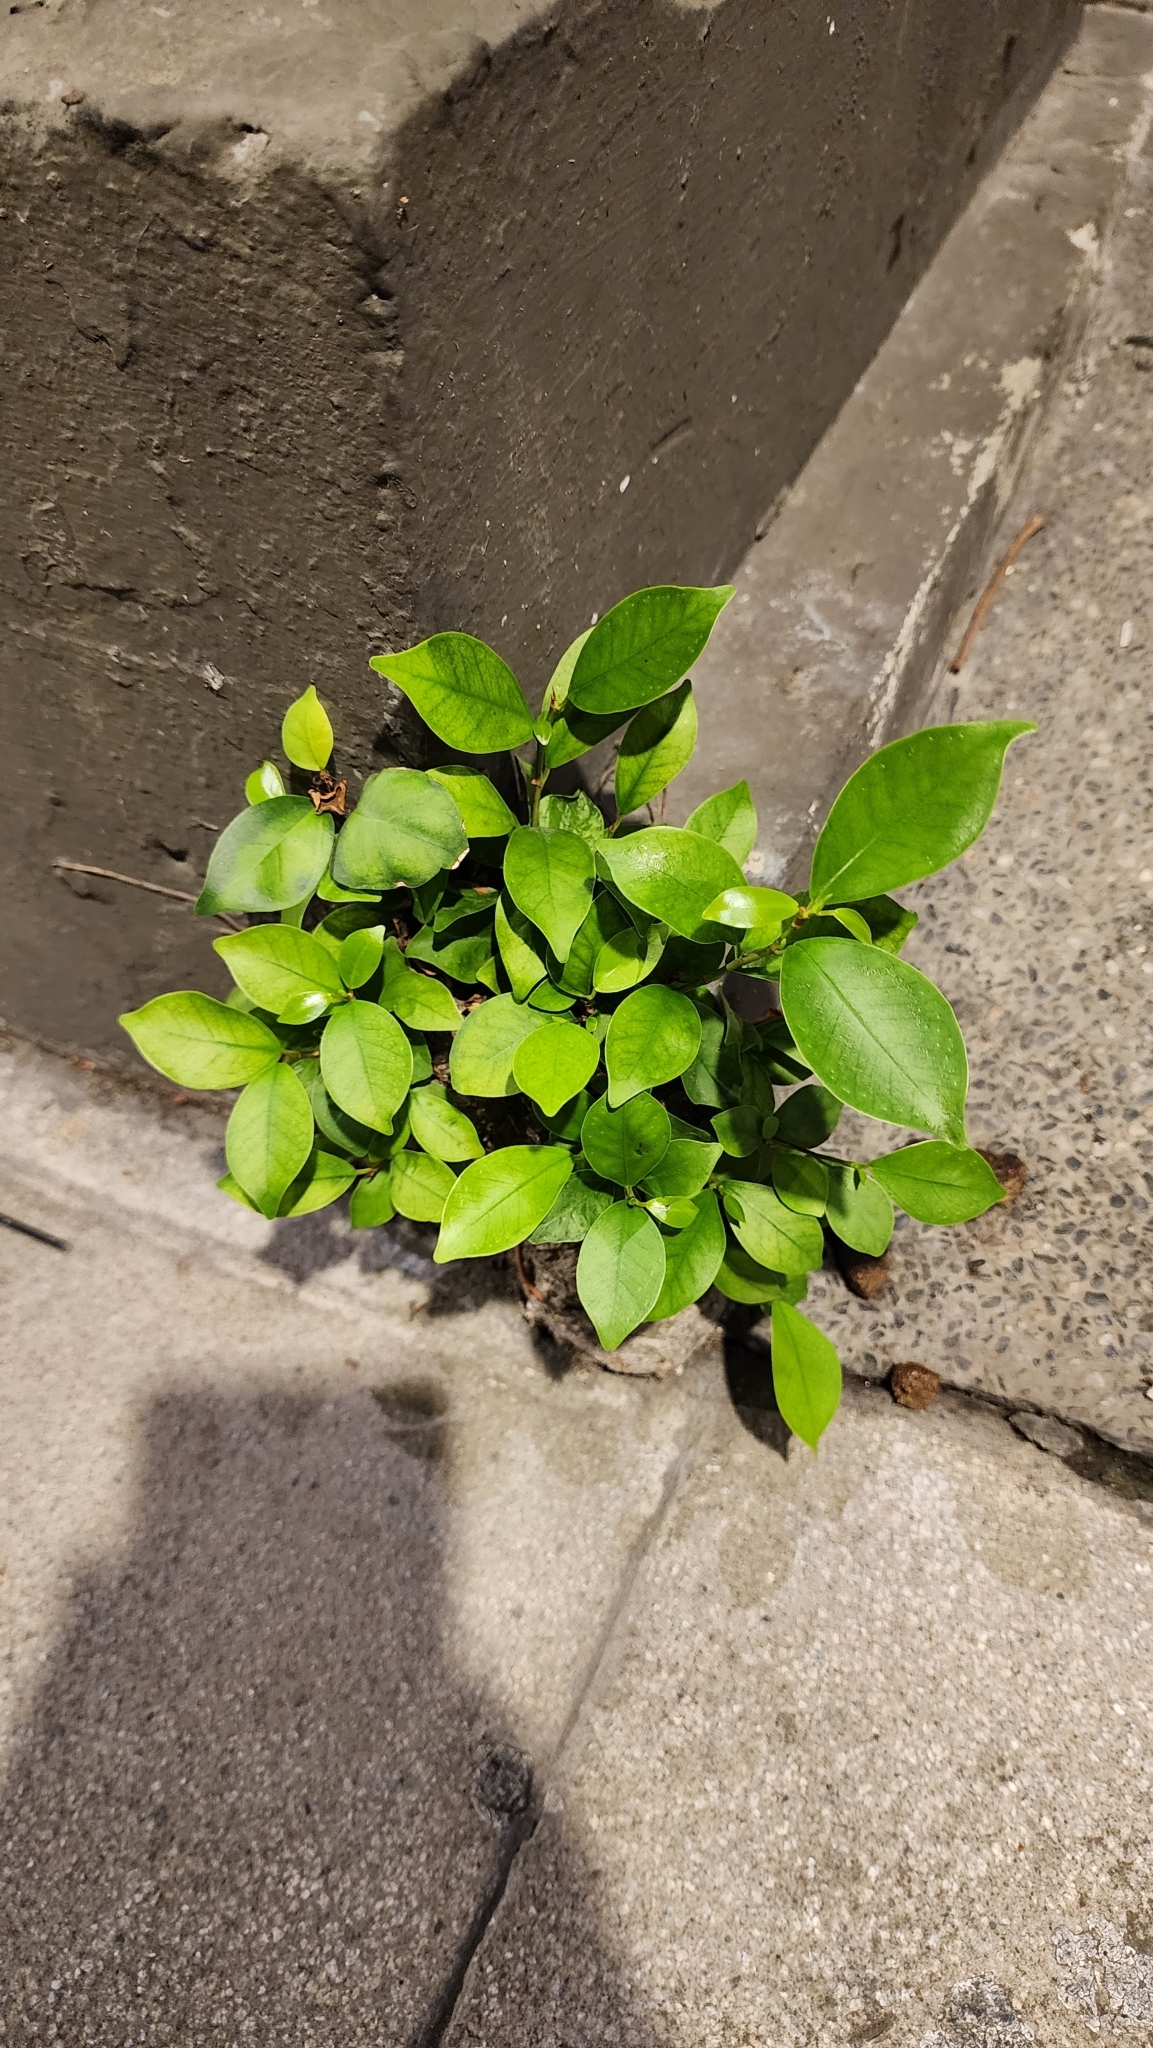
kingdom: Plantae
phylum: Tracheophyta
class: Magnoliopsida
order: Rosales
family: Moraceae
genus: Ficus
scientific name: Ficus microcarpa
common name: Chinese banyan
